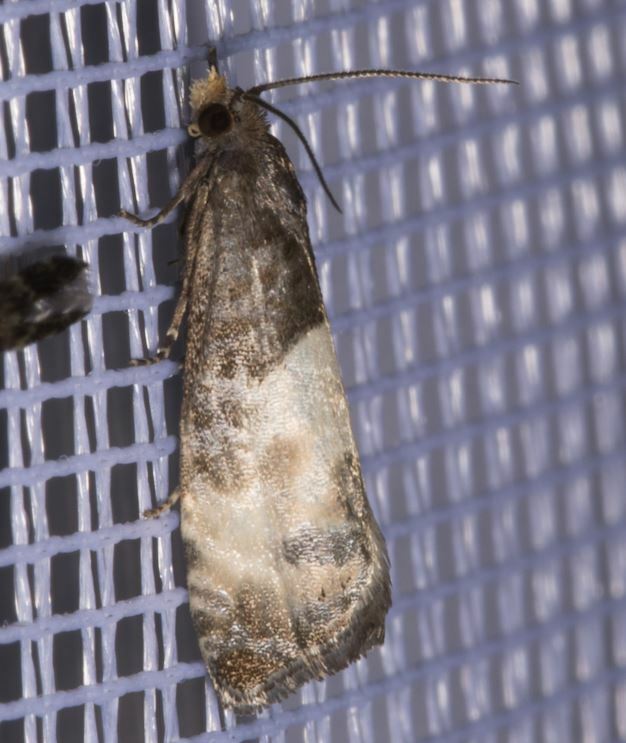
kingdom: Animalia
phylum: Arthropoda
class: Insecta
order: Lepidoptera
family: Tortricidae
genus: Notocelia
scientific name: Notocelia cynosbatella
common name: Yellow-faced bell moth
